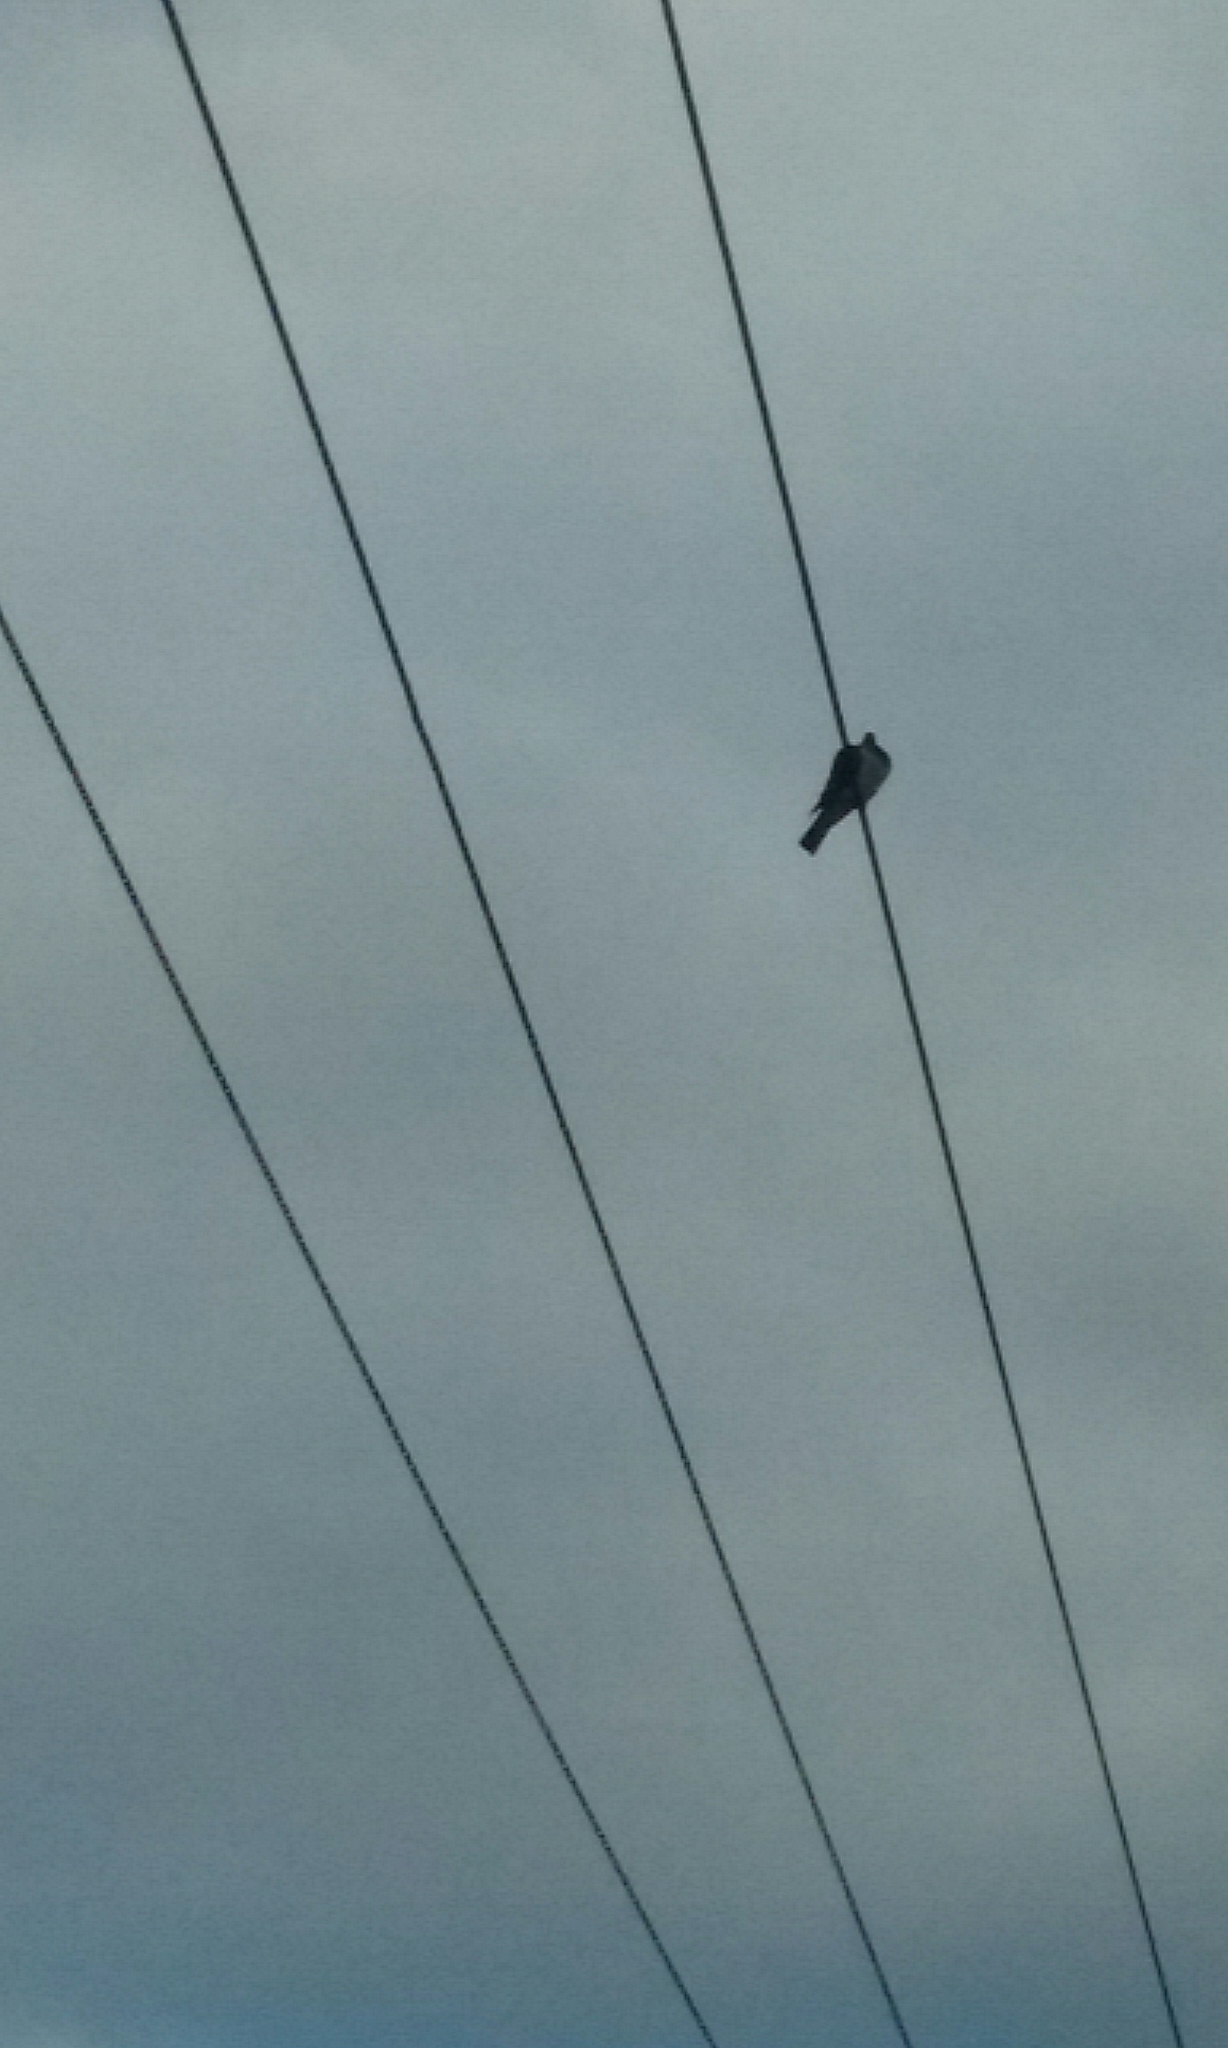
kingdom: Animalia
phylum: Chordata
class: Aves
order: Columbiformes
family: Columbidae
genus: Hemiphaga
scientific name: Hemiphaga novaeseelandiae
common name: New zealand pigeon
